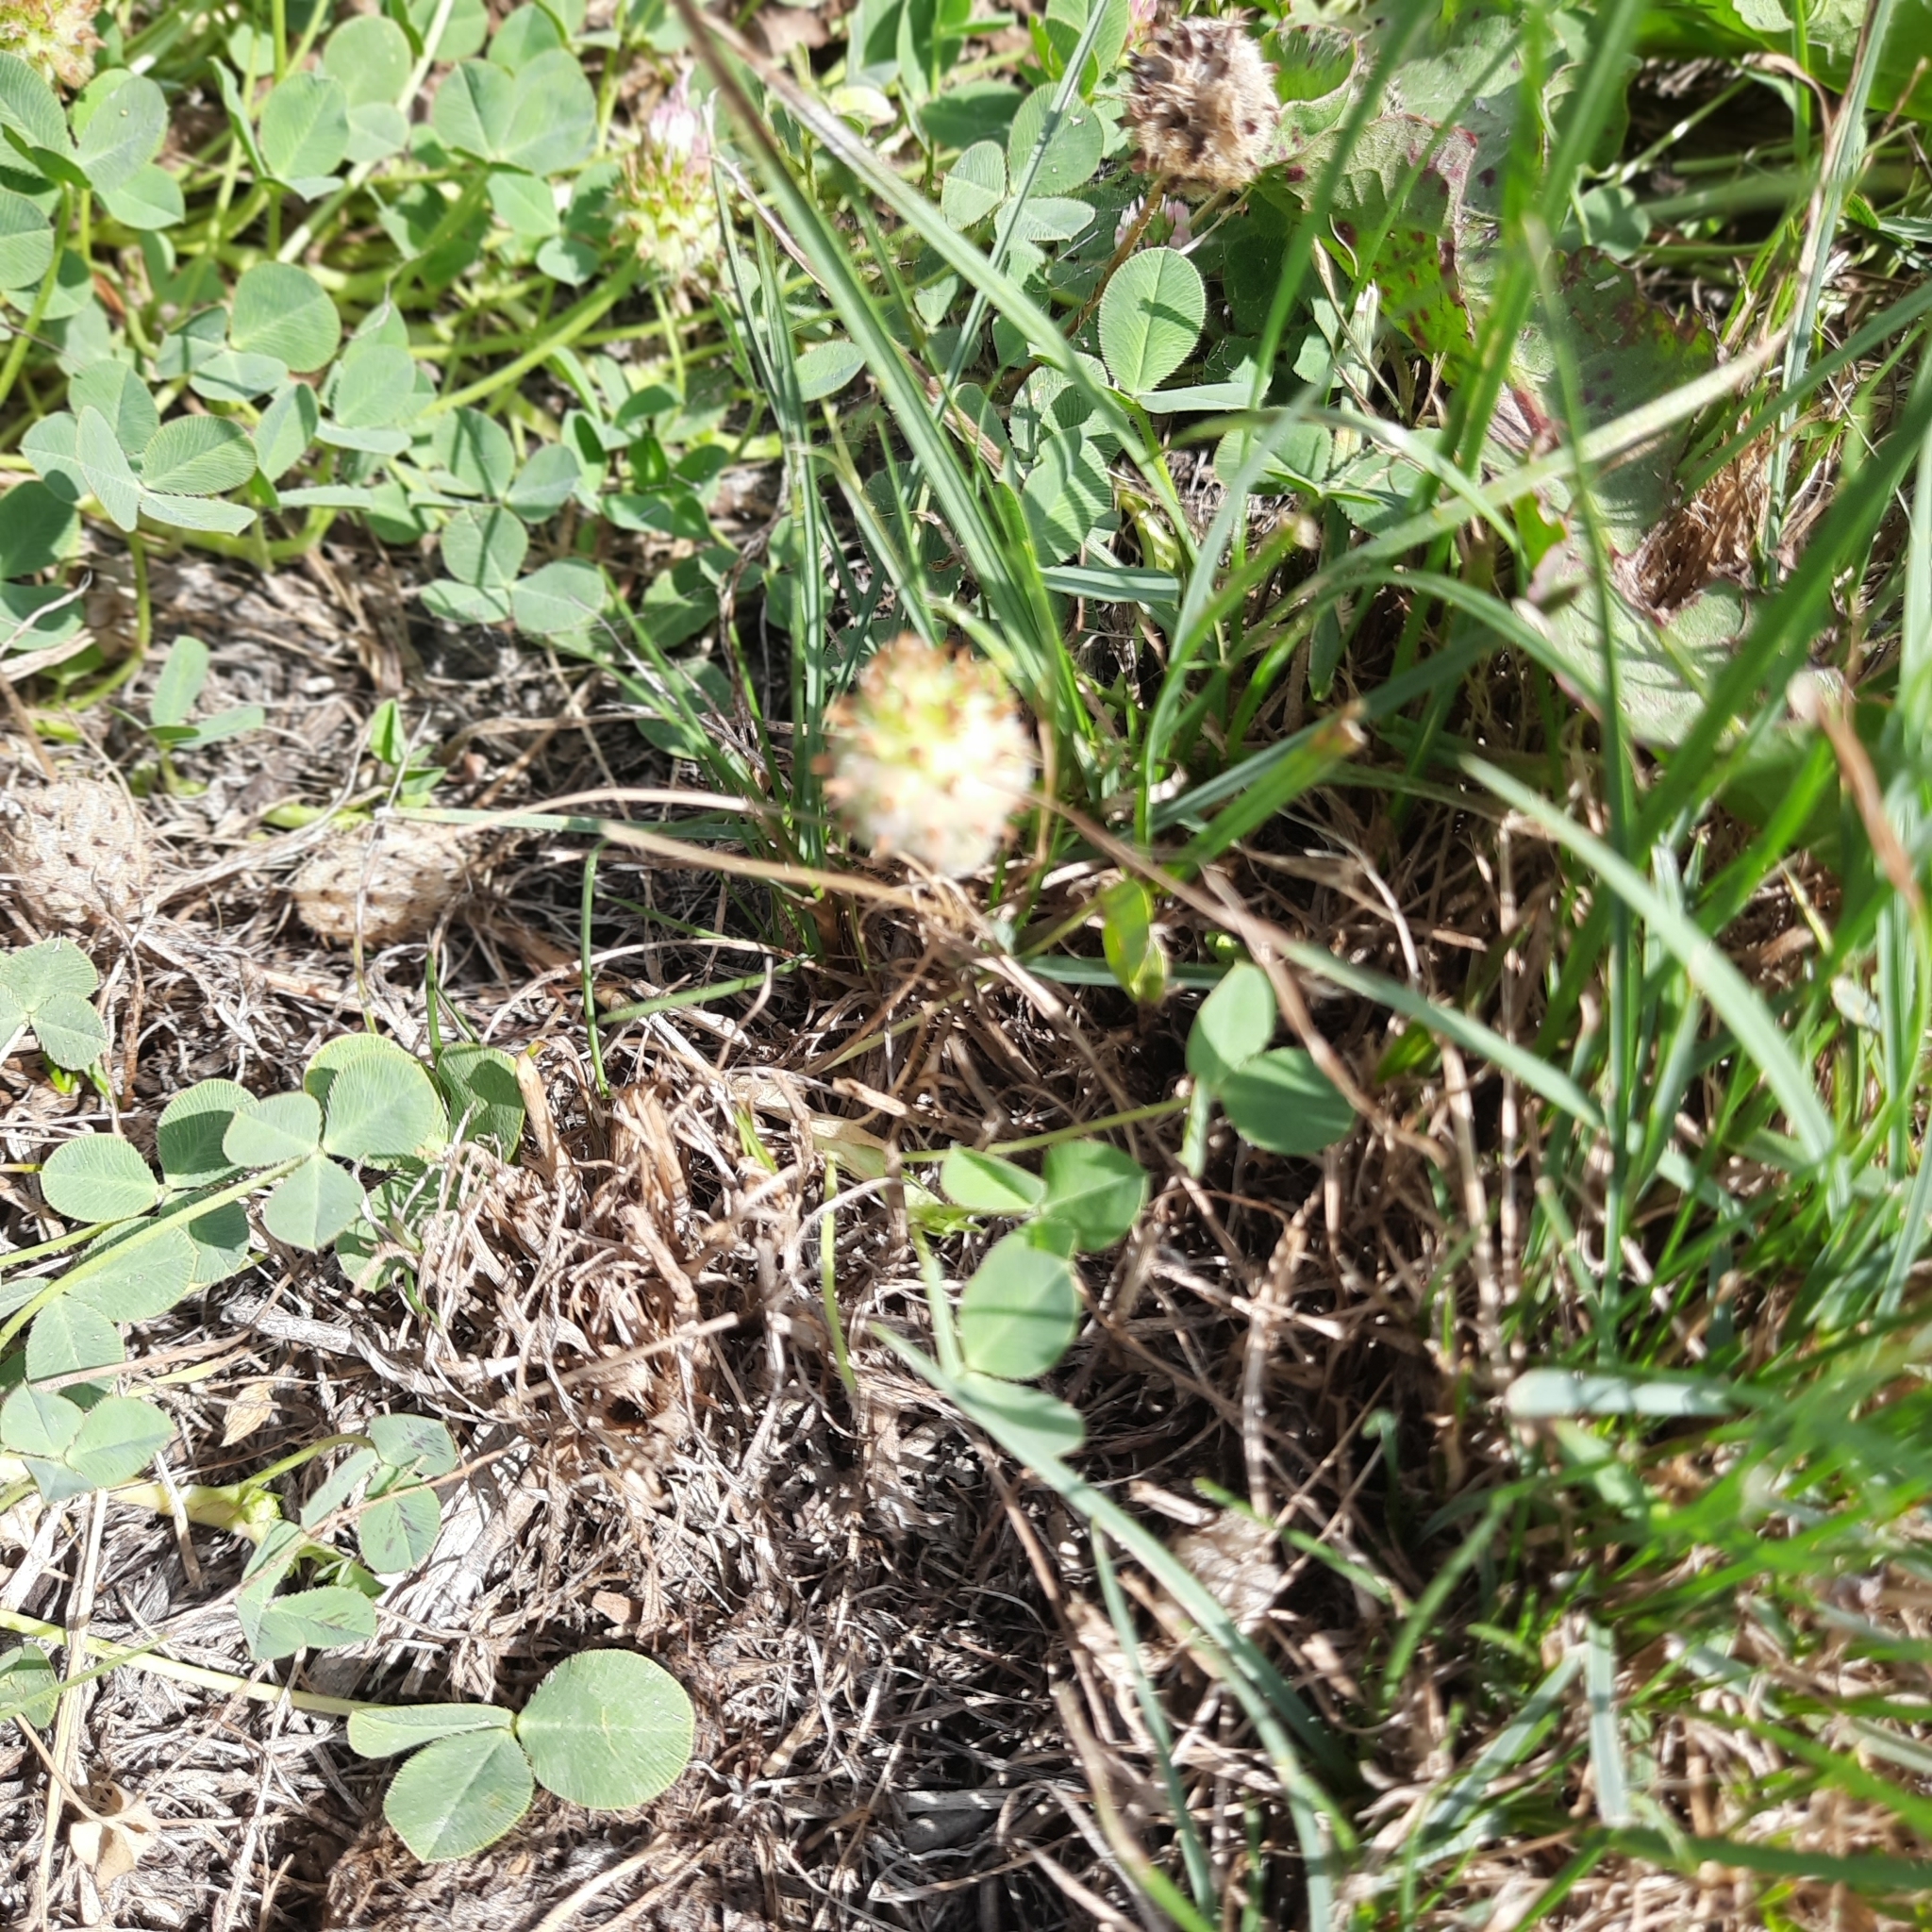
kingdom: Plantae
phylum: Tracheophyta
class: Magnoliopsida
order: Fabales
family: Fabaceae
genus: Trifolium
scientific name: Trifolium fragiferum
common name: Strawberry clover
